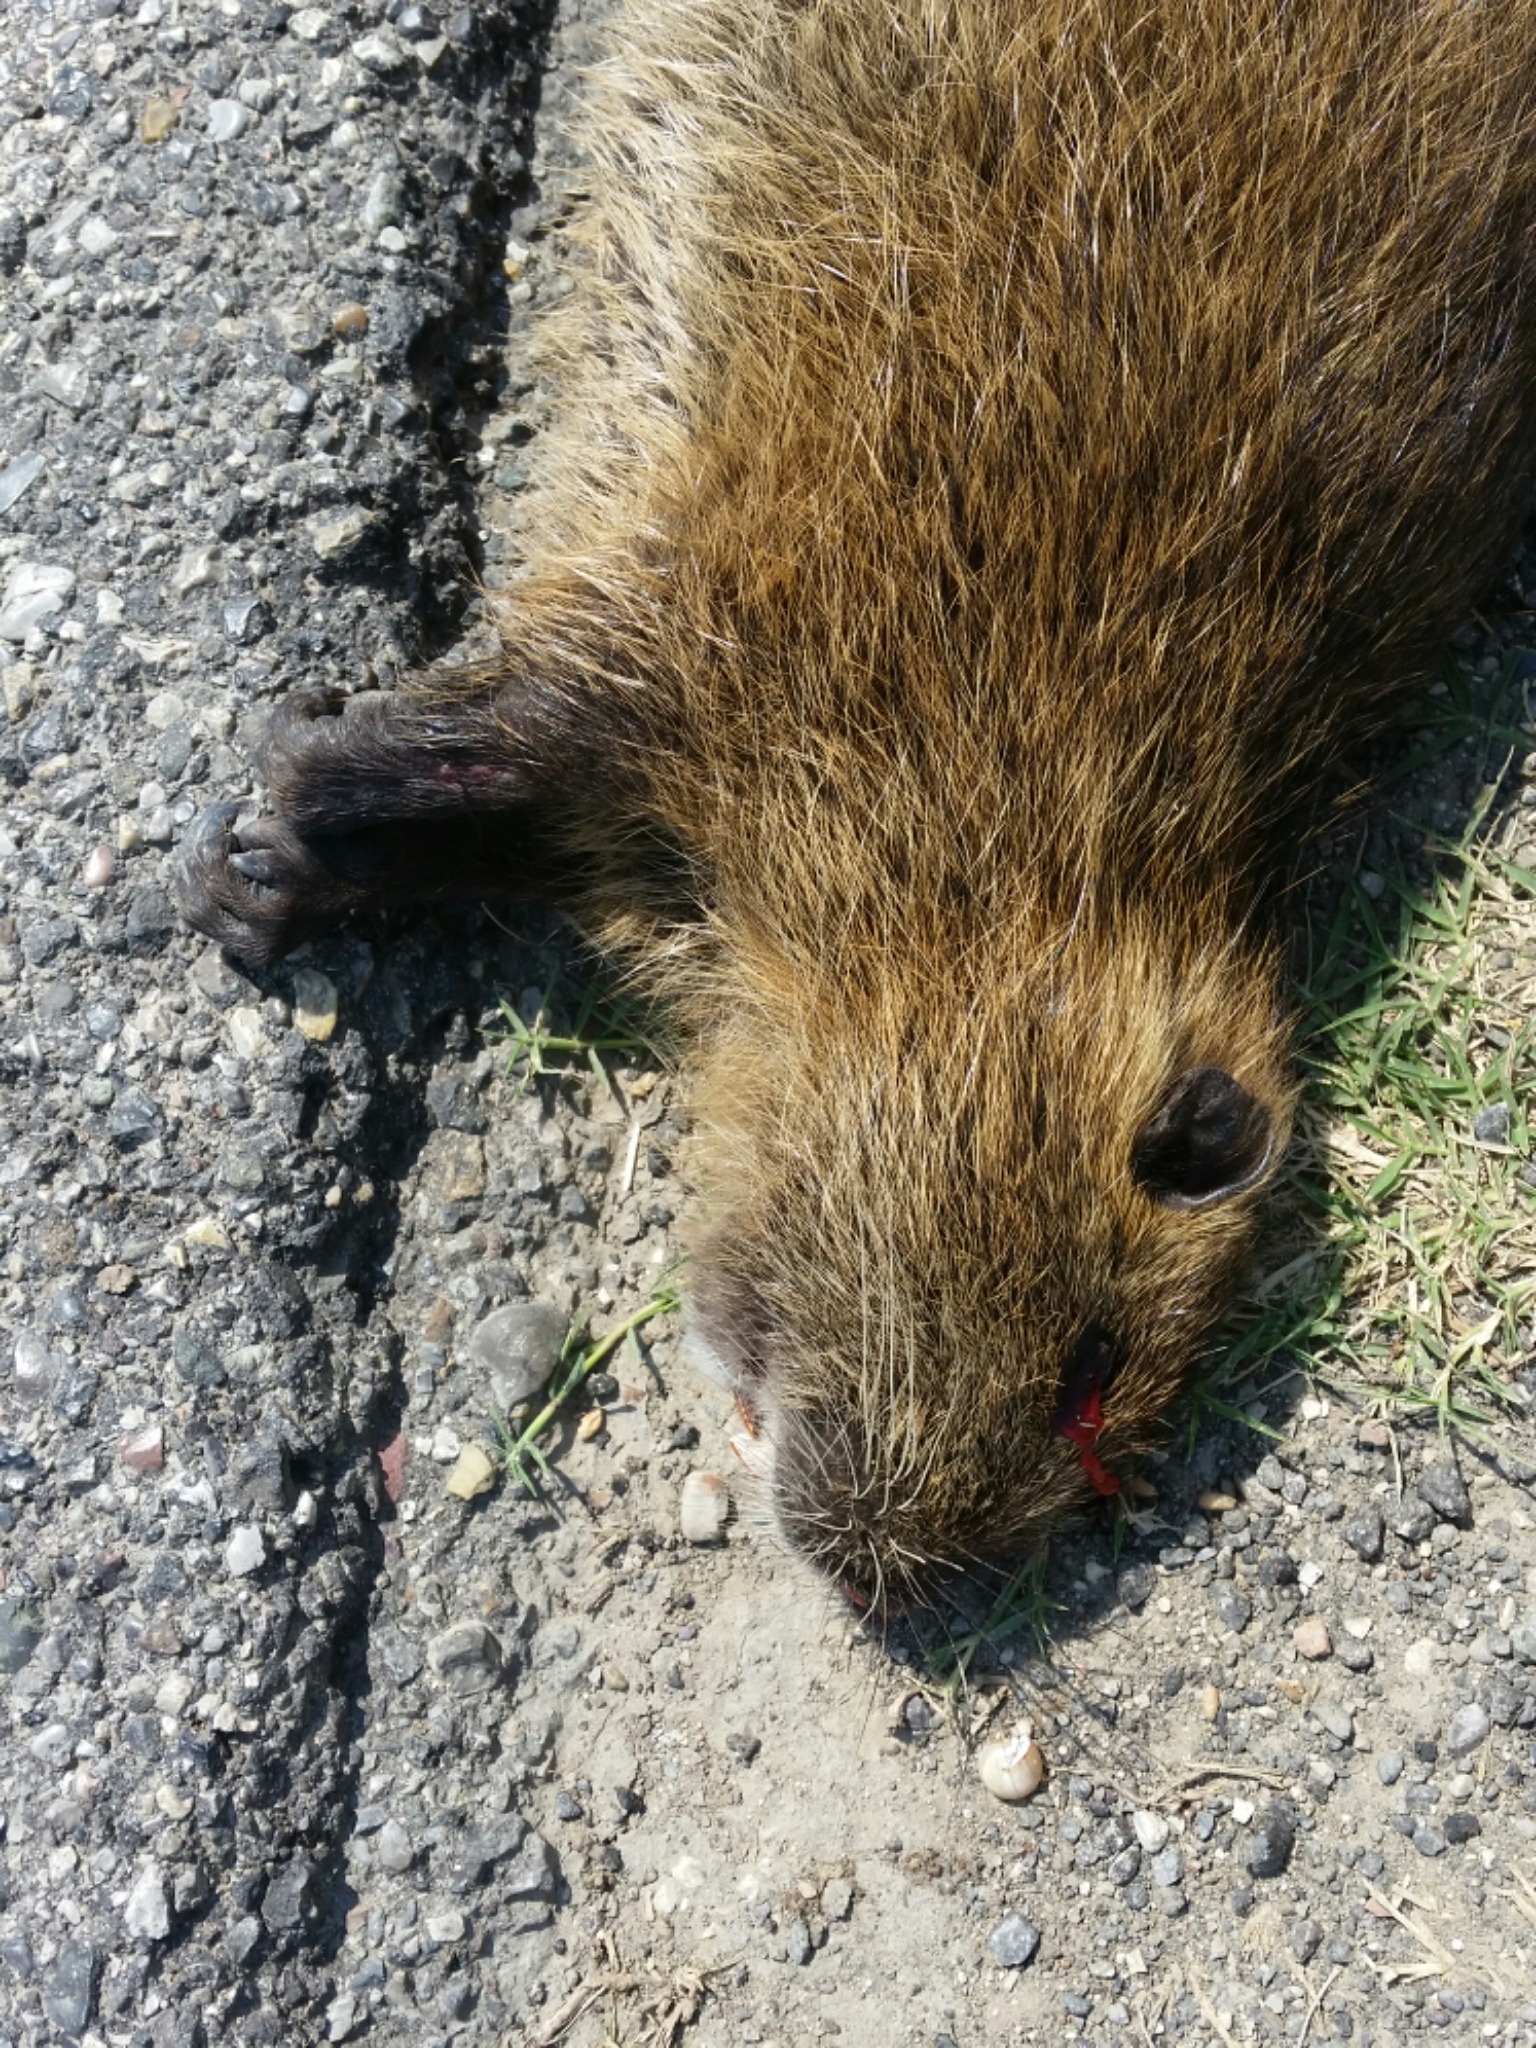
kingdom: Animalia
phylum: Chordata
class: Mammalia
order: Rodentia
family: Myocastoridae
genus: Myocastor
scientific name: Myocastor coypus
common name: Coypu
